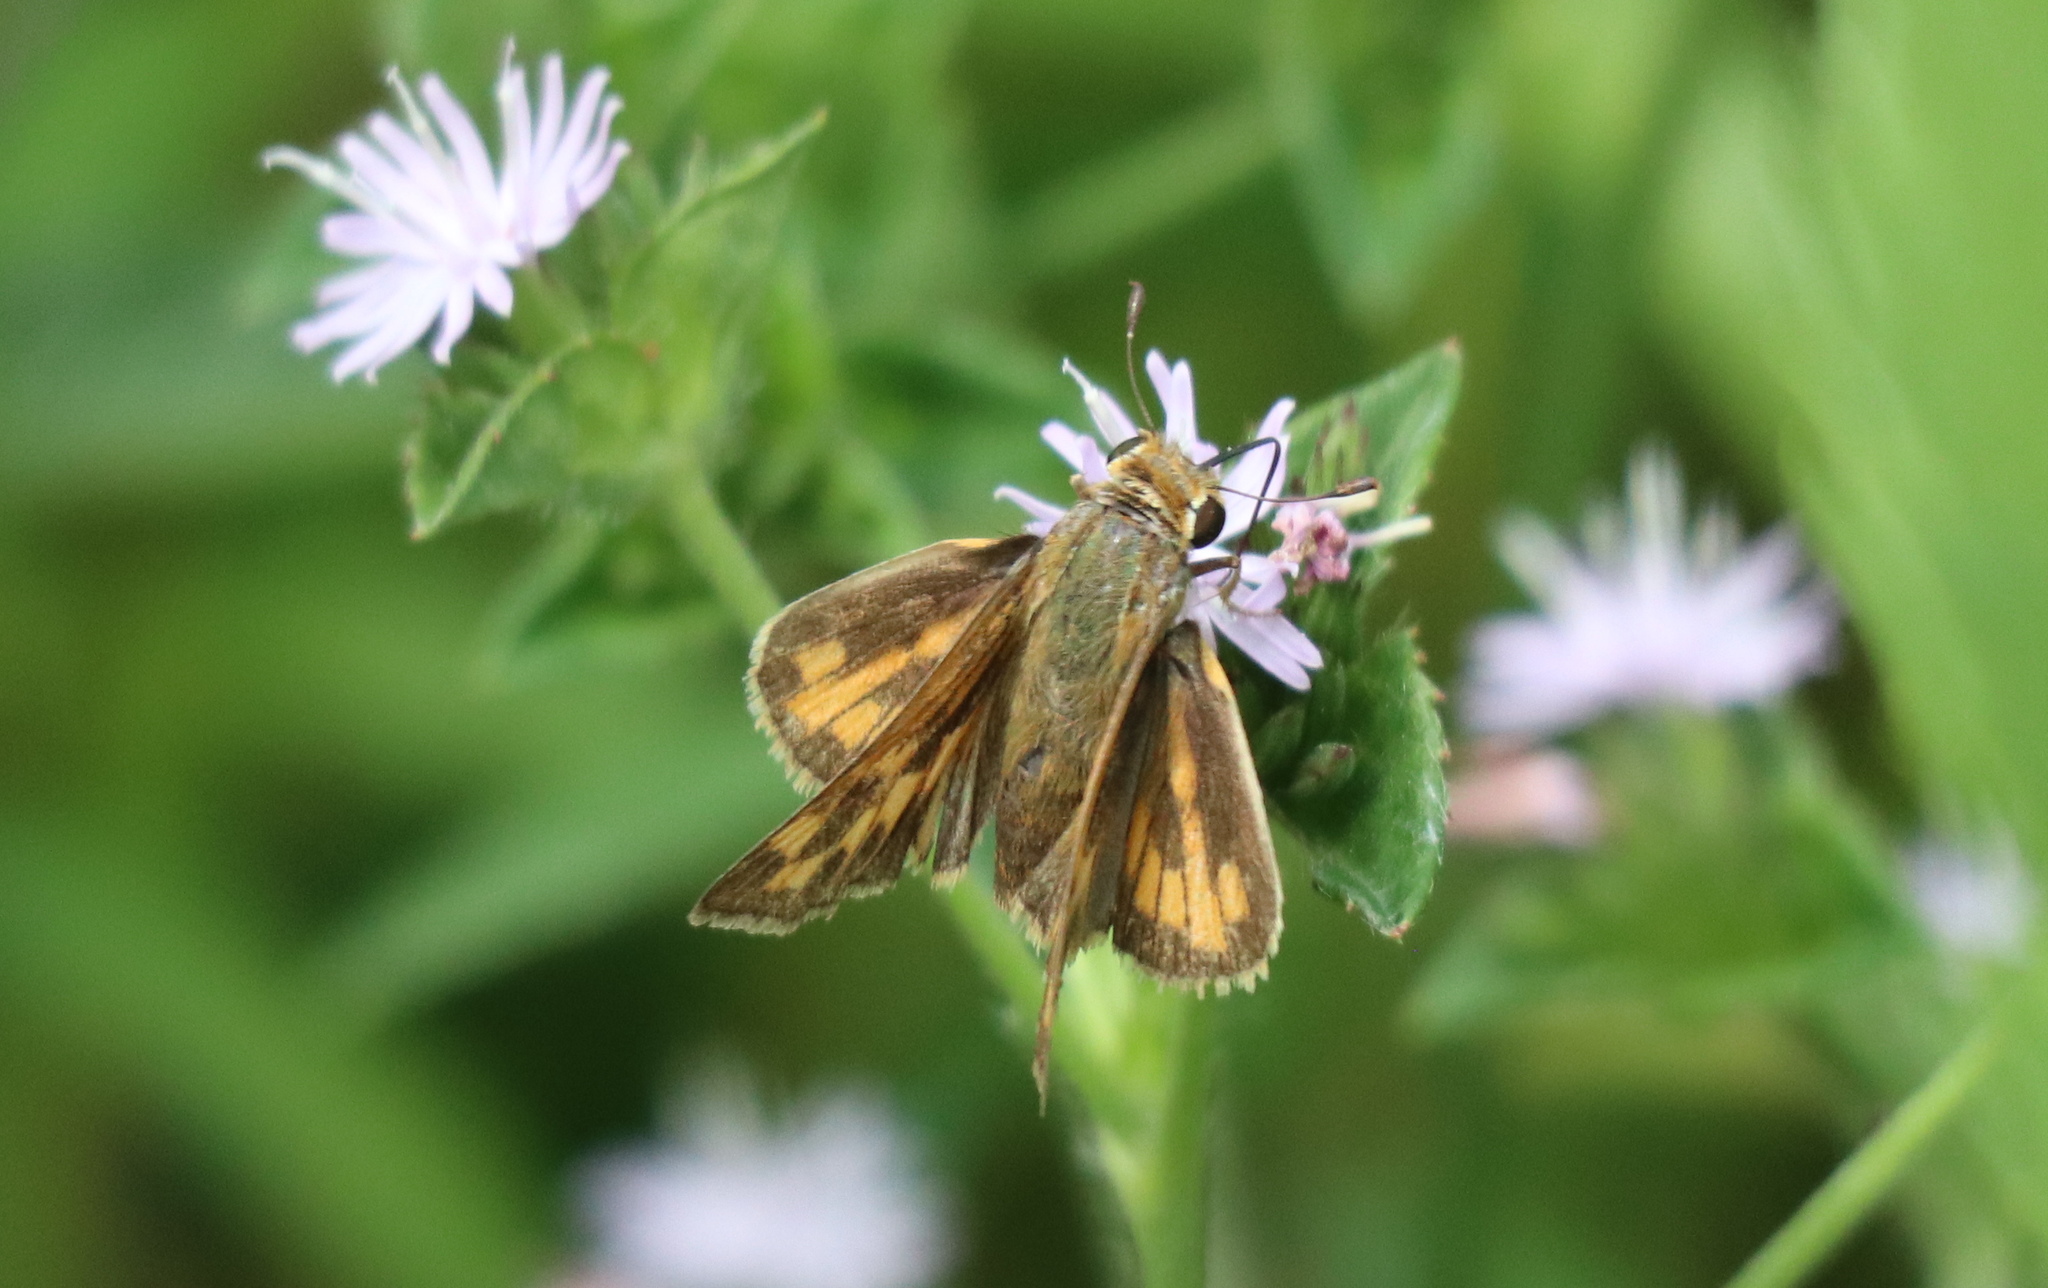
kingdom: Animalia
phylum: Arthropoda
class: Insecta
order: Lepidoptera
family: Hesperiidae
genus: Hylephila
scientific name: Hylephila phyleus
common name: Fiery skipper
